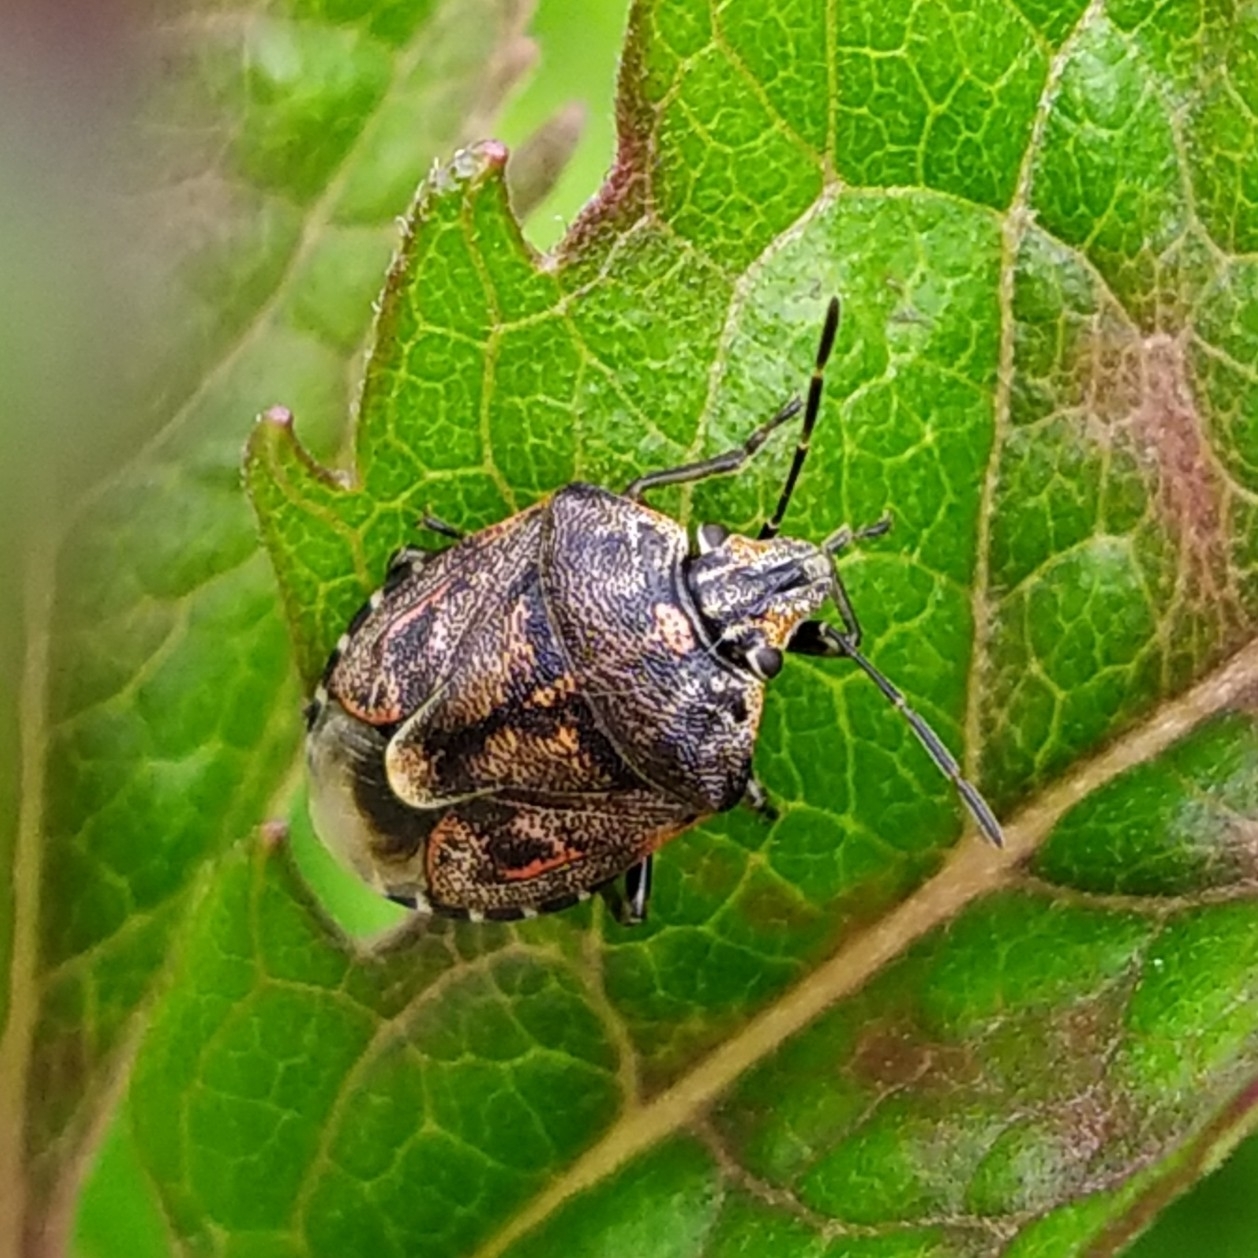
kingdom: Animalia
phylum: Arthropoda
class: Insecta
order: Hemiptera
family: Pentatomidae
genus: Holcogaster
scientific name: Holcogaster fibulata
